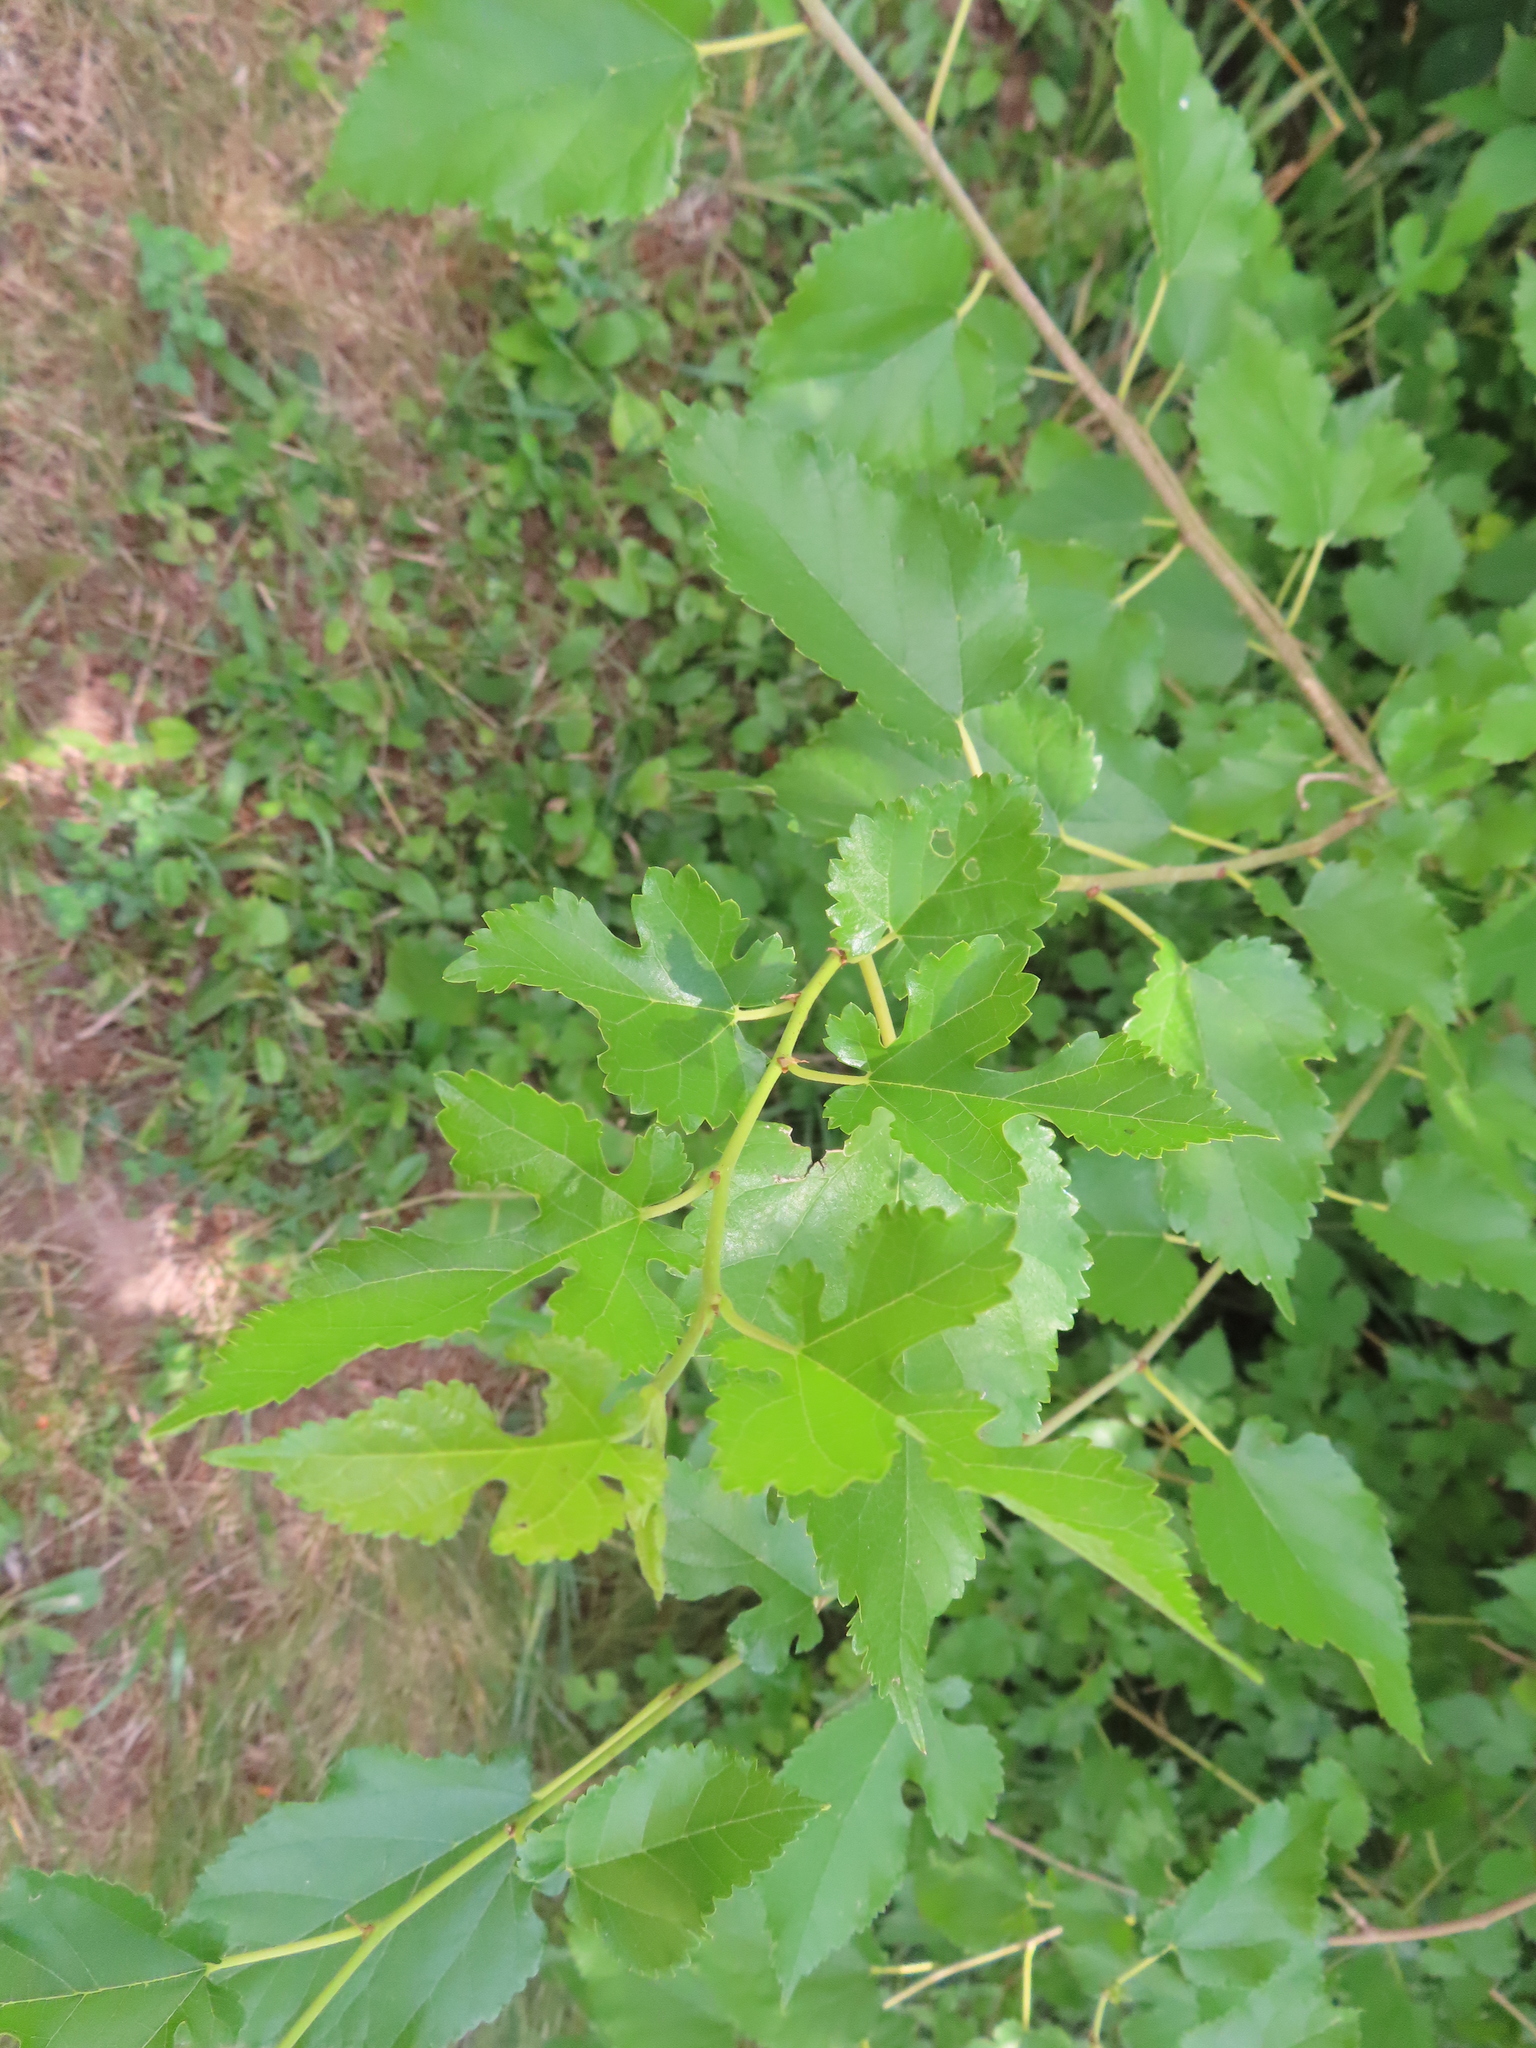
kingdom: Plantae
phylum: Tracheophyta
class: Magnoliopsida
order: Rosales
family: Moraceae
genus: Morus
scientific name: Morus alba
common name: White mulberry
